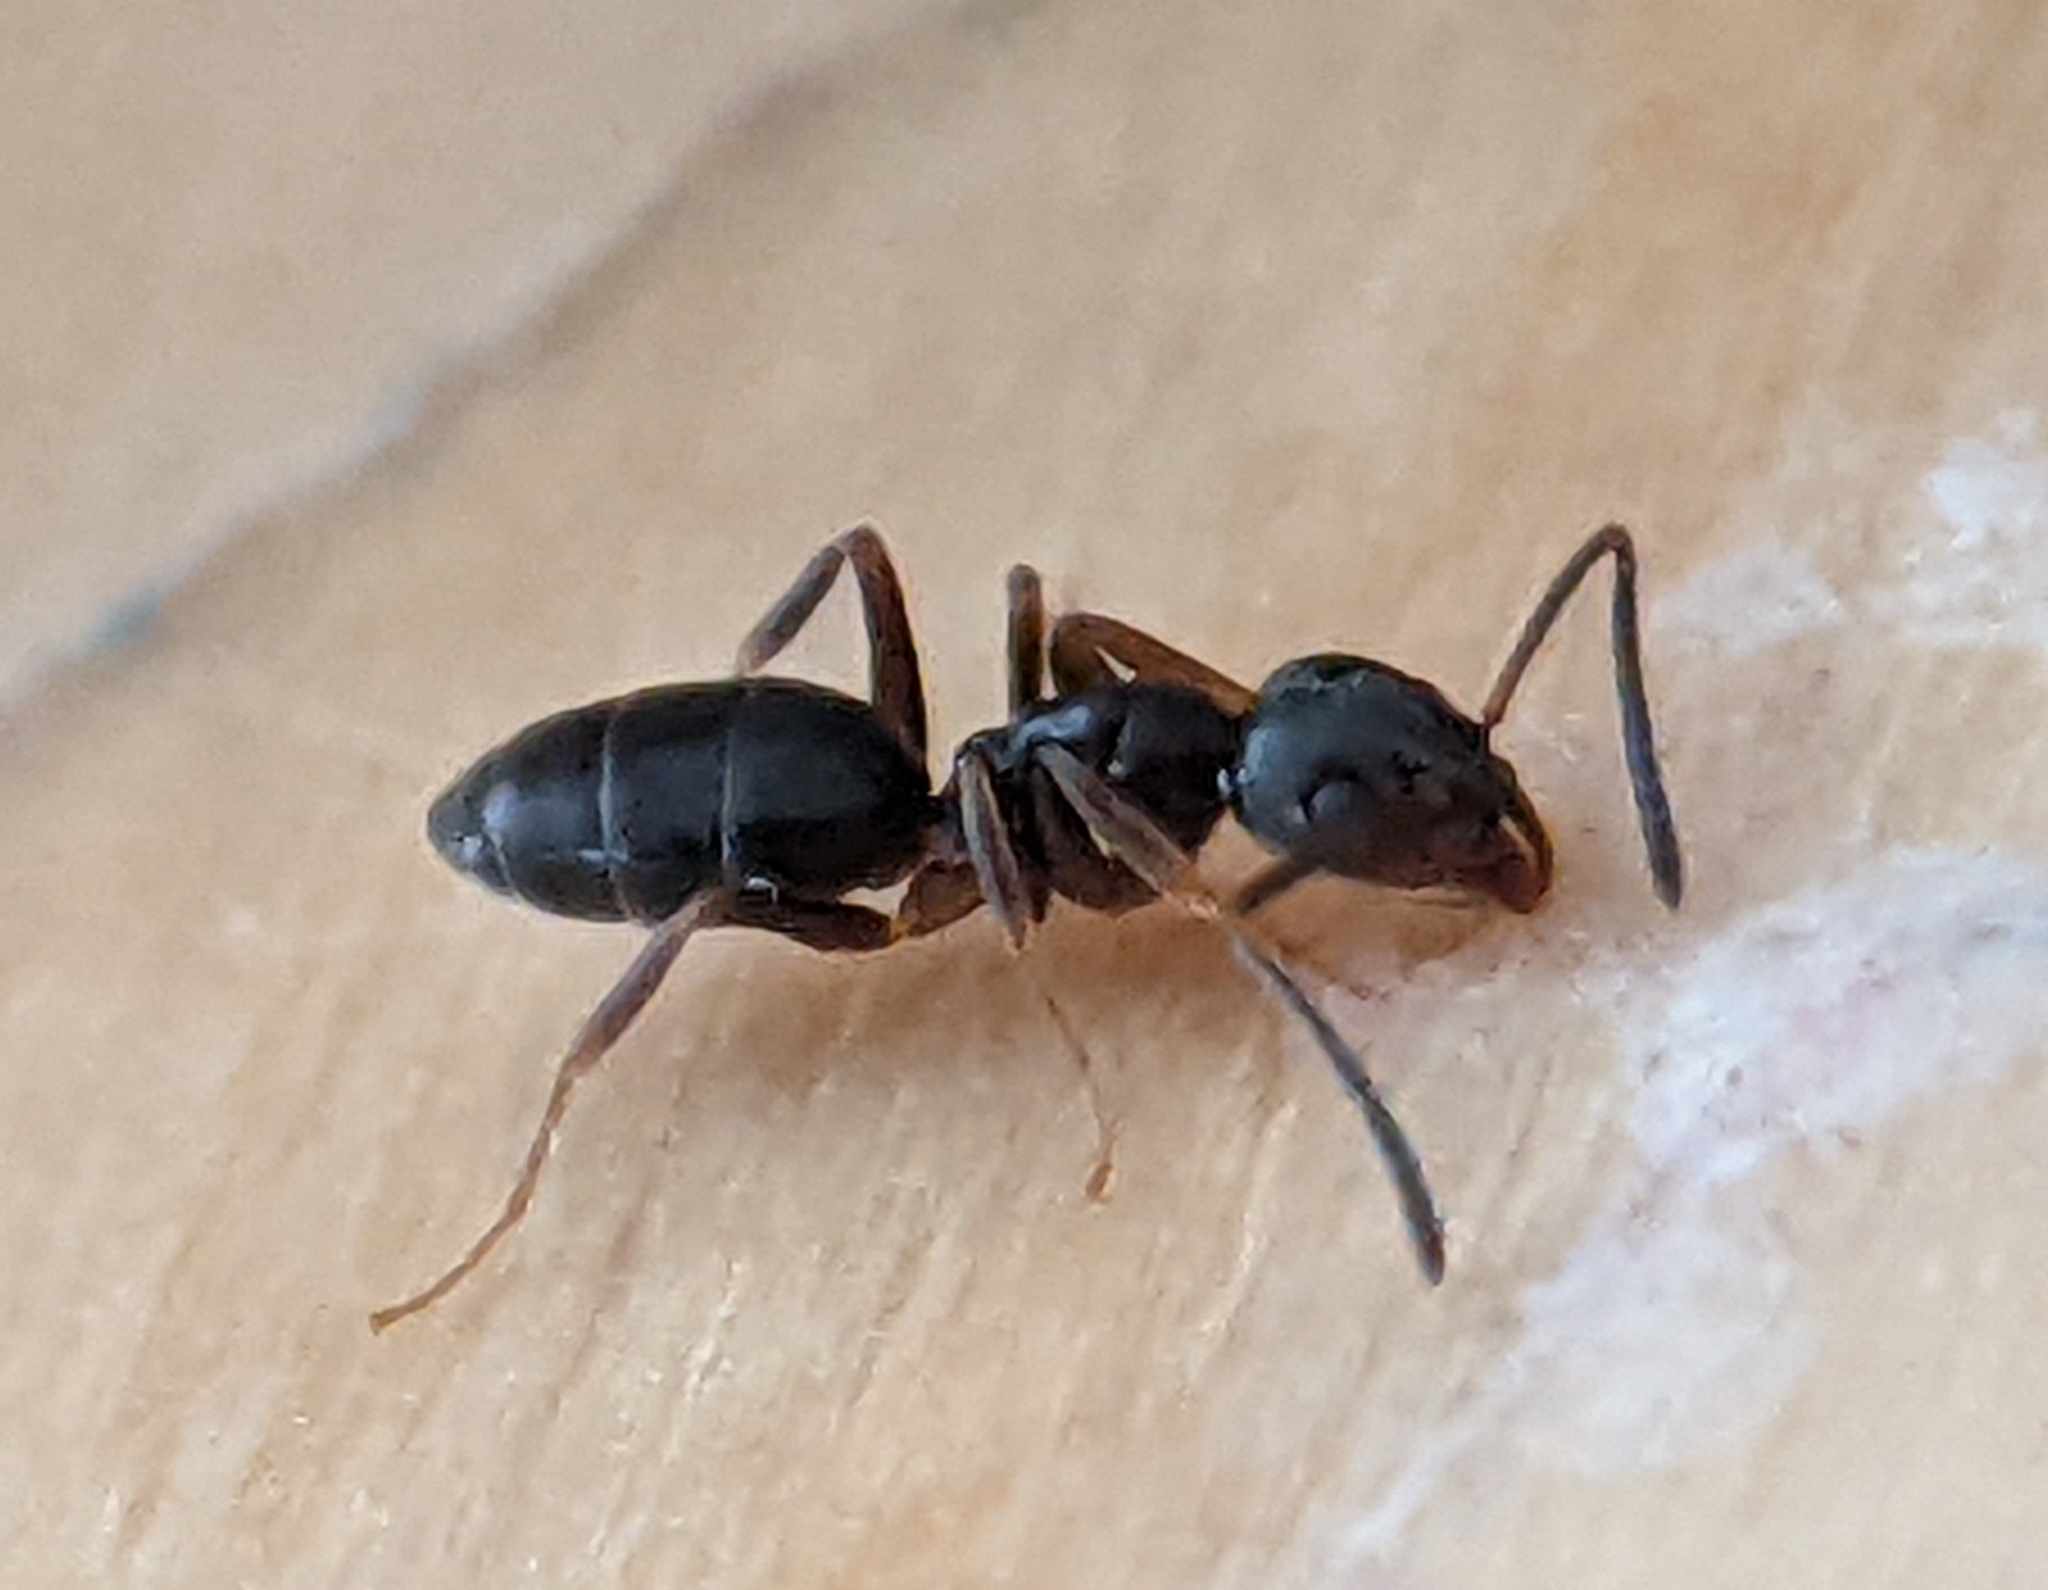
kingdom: Animalia
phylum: Arthropoda
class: Insecta
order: Hymenoptera
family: Formicidae
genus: Tapinoma
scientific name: Tapinoma sessile
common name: Odorous house ant
